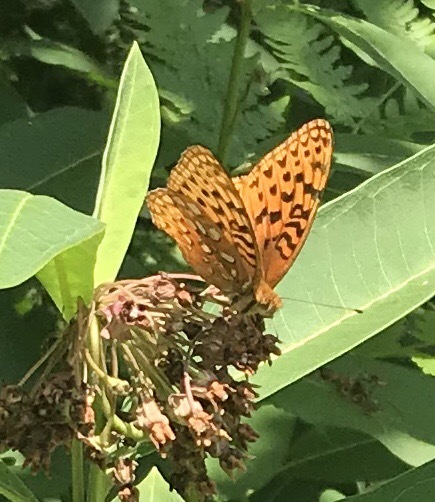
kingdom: Animalia
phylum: Arthropoda
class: Insecta
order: Lepidoptera
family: Nymphalidae
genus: Speyeria
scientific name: Speyeria cybele
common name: Great spangled fritillary
